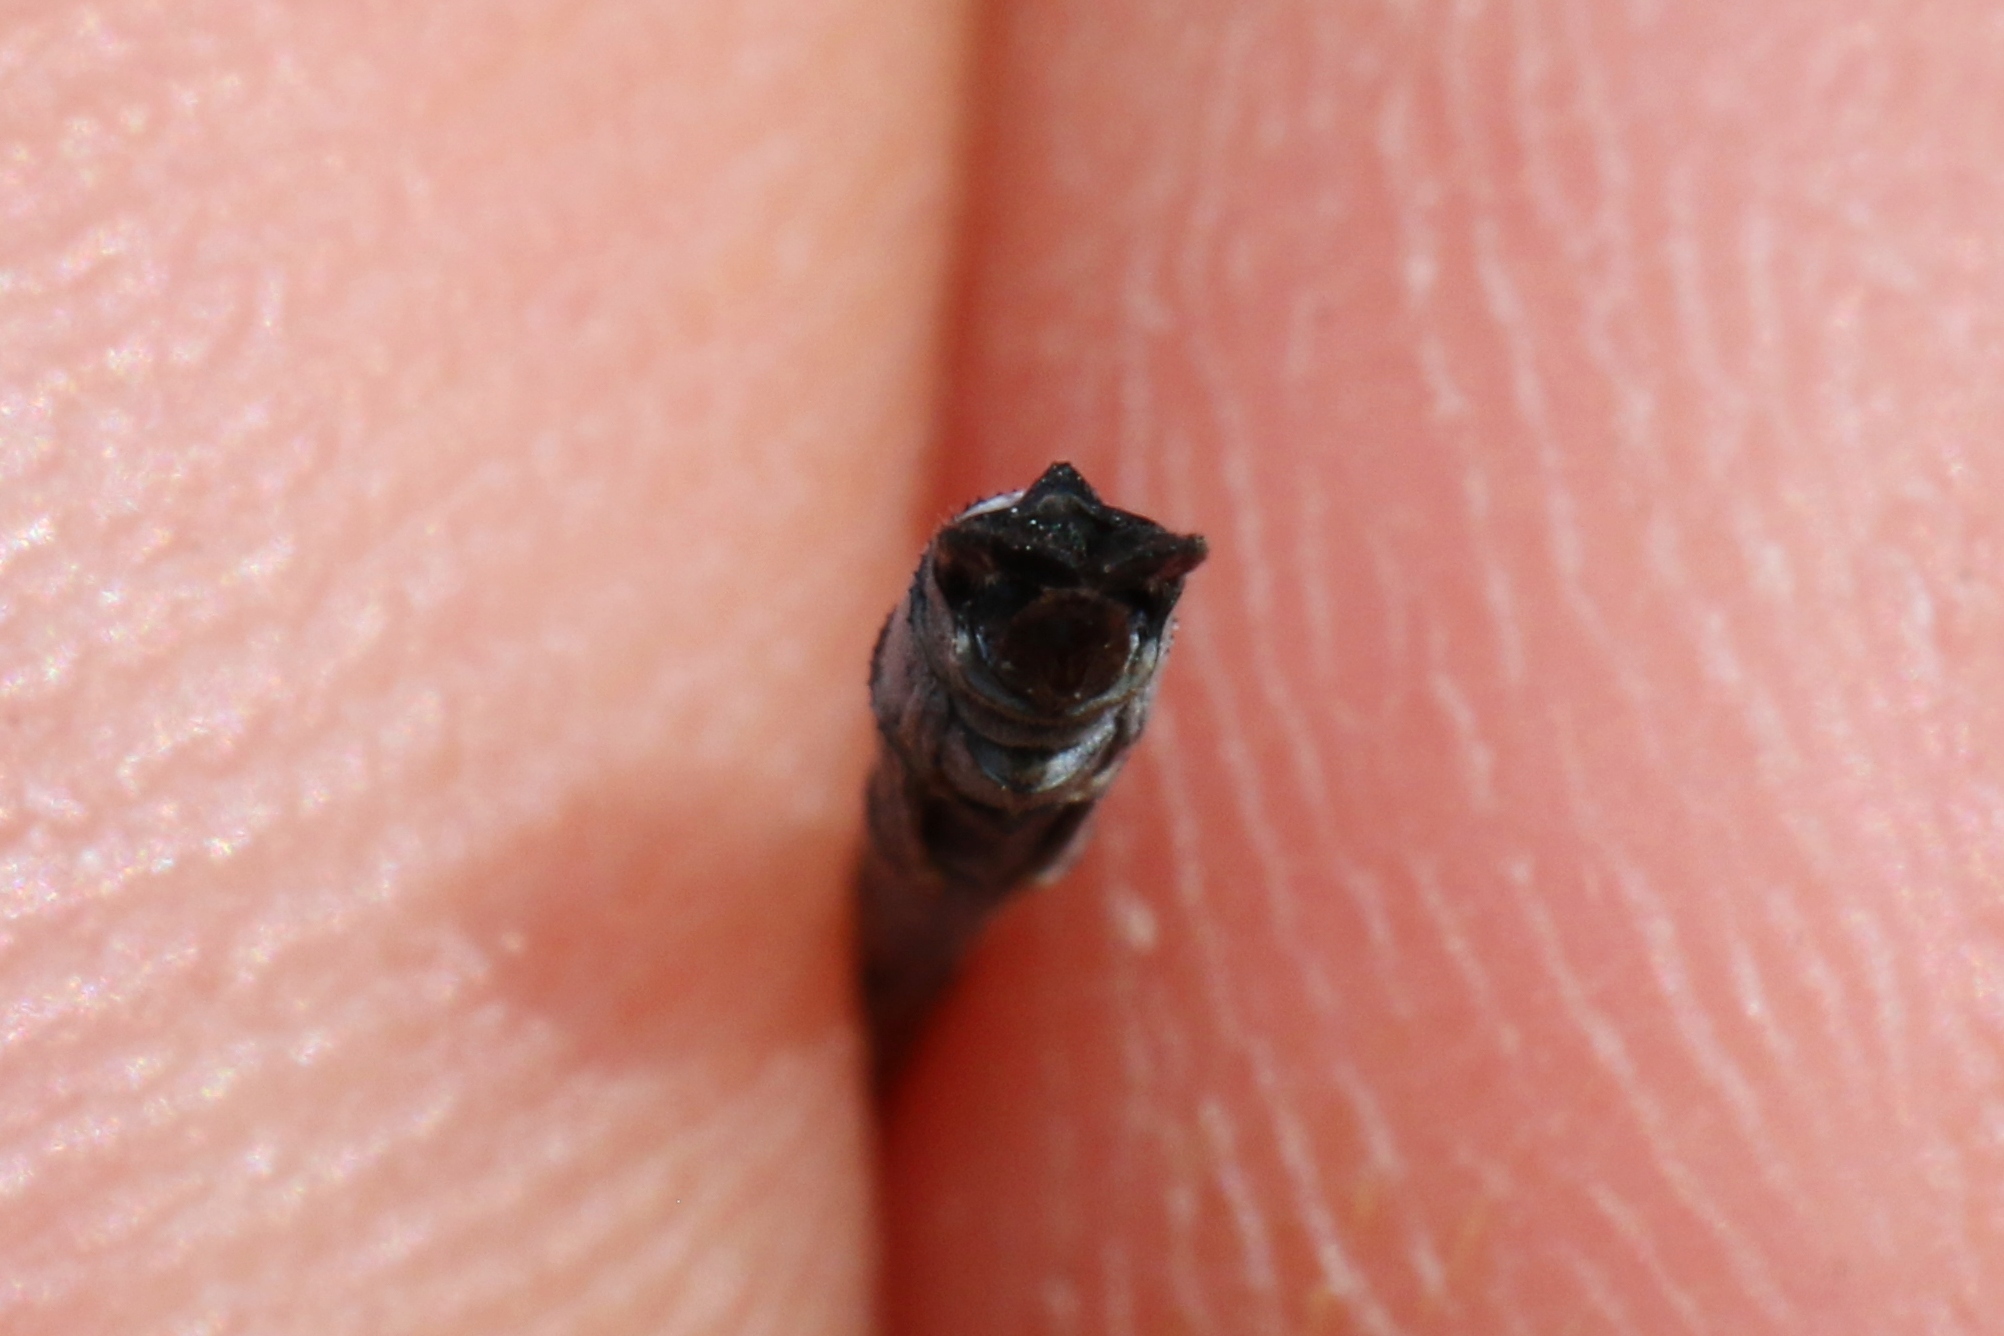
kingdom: Animalia
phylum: Arthropoda
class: Insecta
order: Odonata
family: Lestidae
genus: Lestes
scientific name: Lestes disjunctus
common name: Northern spreadwing
